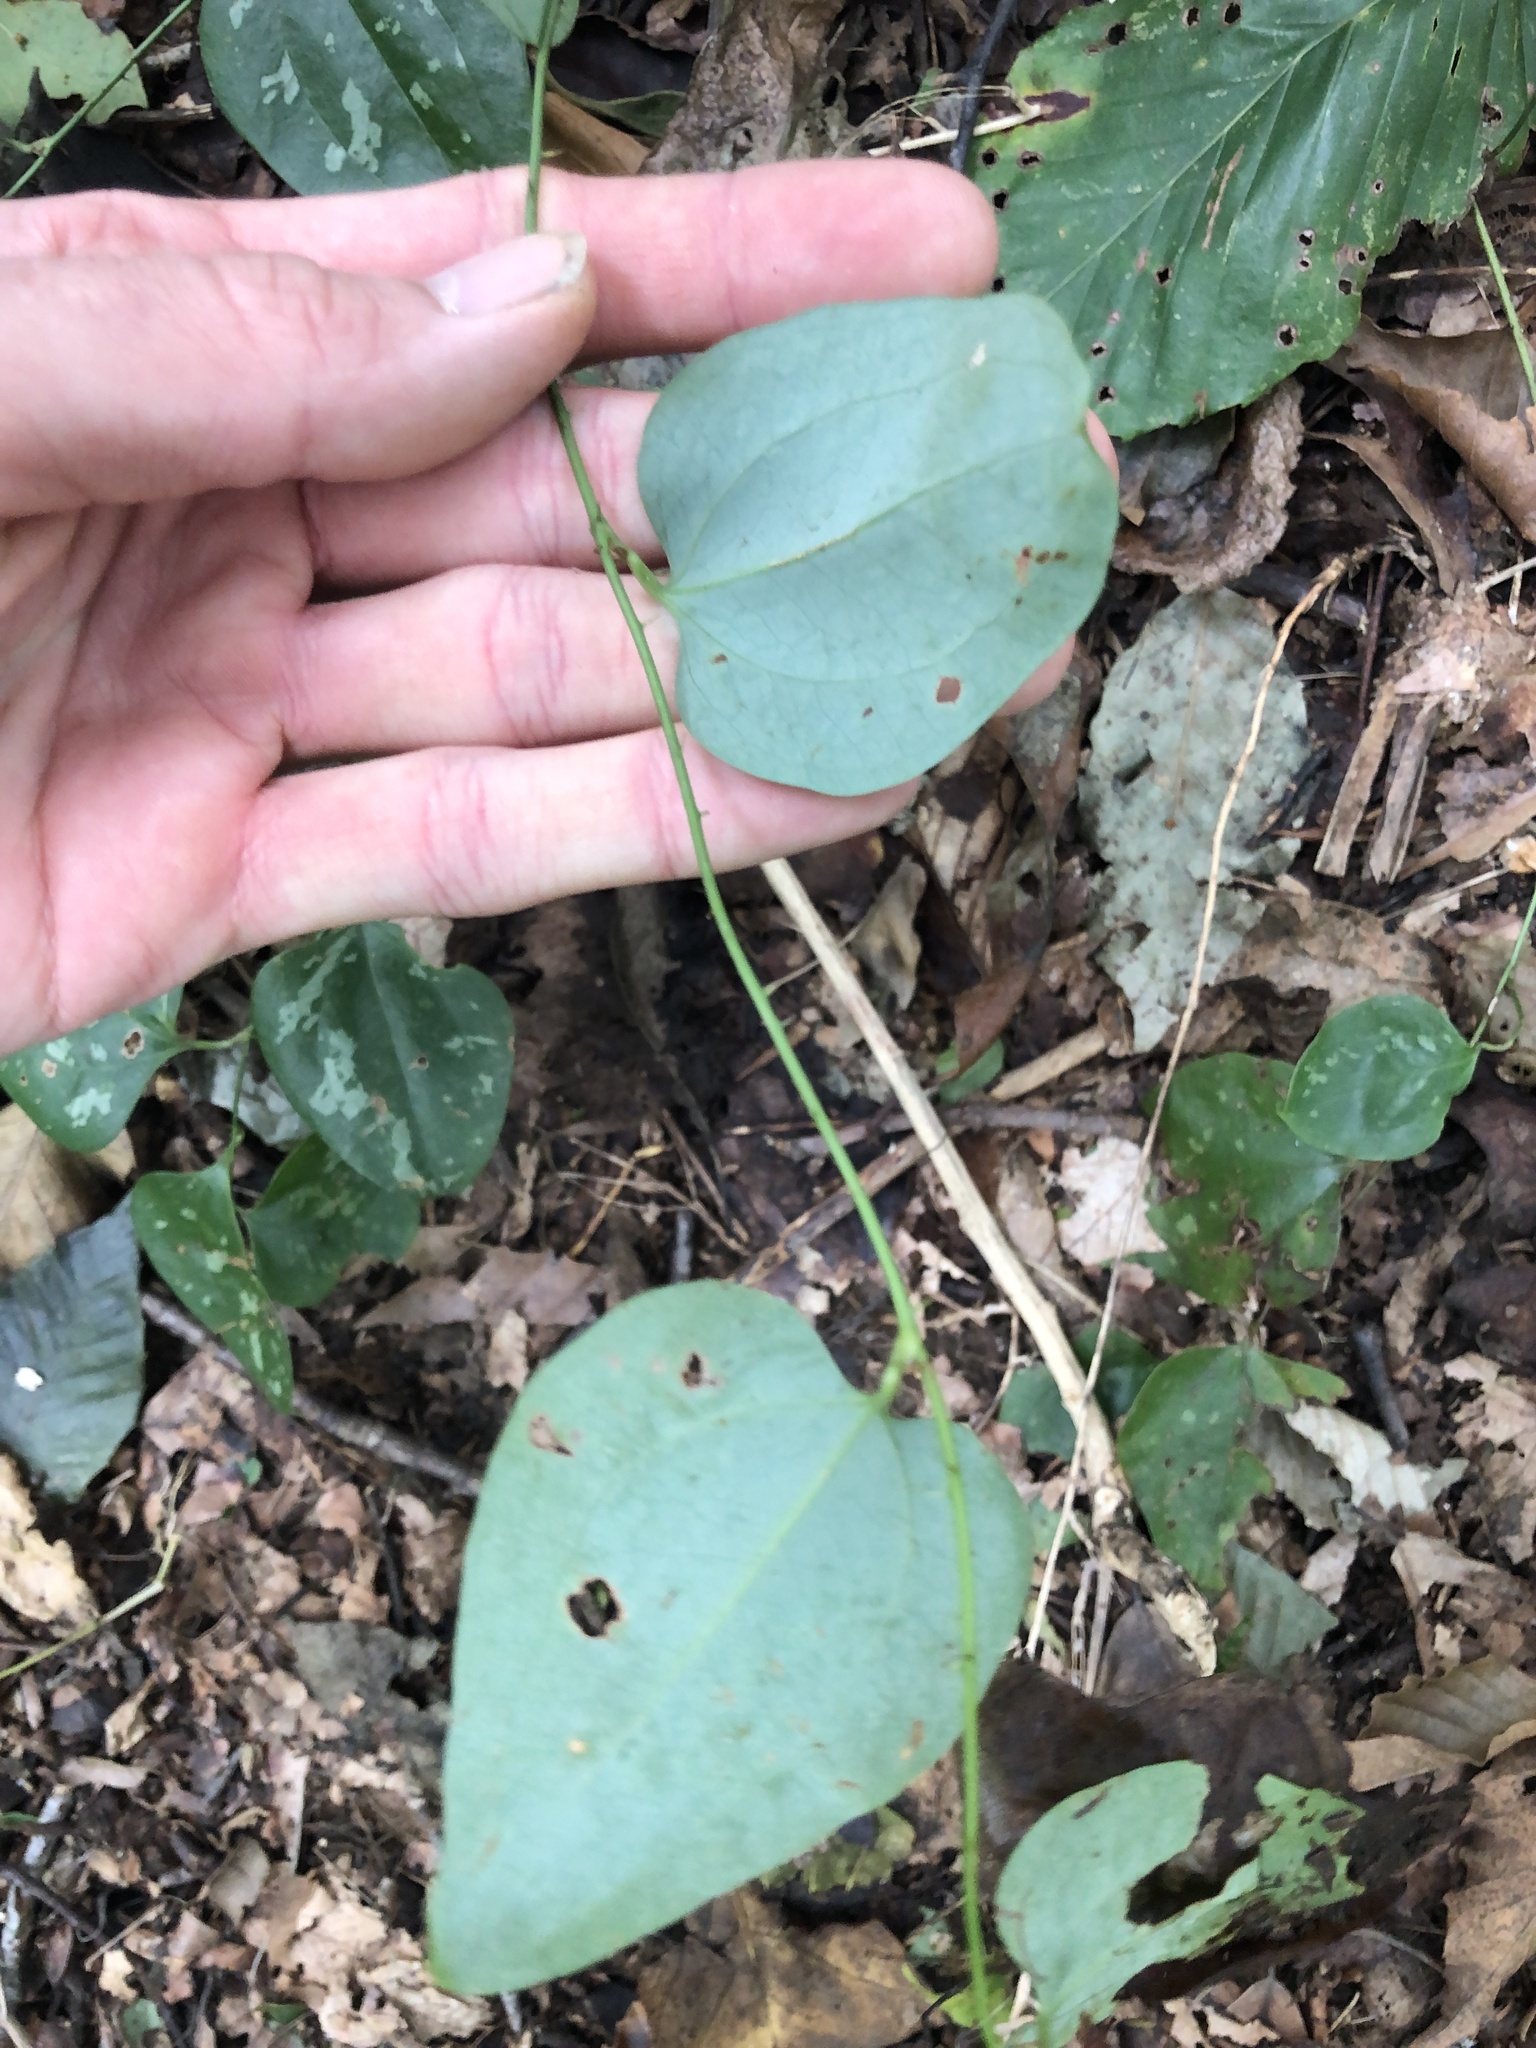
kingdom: Plantae
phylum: Tracheophyta
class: Liliopsida
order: Liliales
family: Smilacaceae
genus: Smilax
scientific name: Smilax glauca
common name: Cat greenbrier
